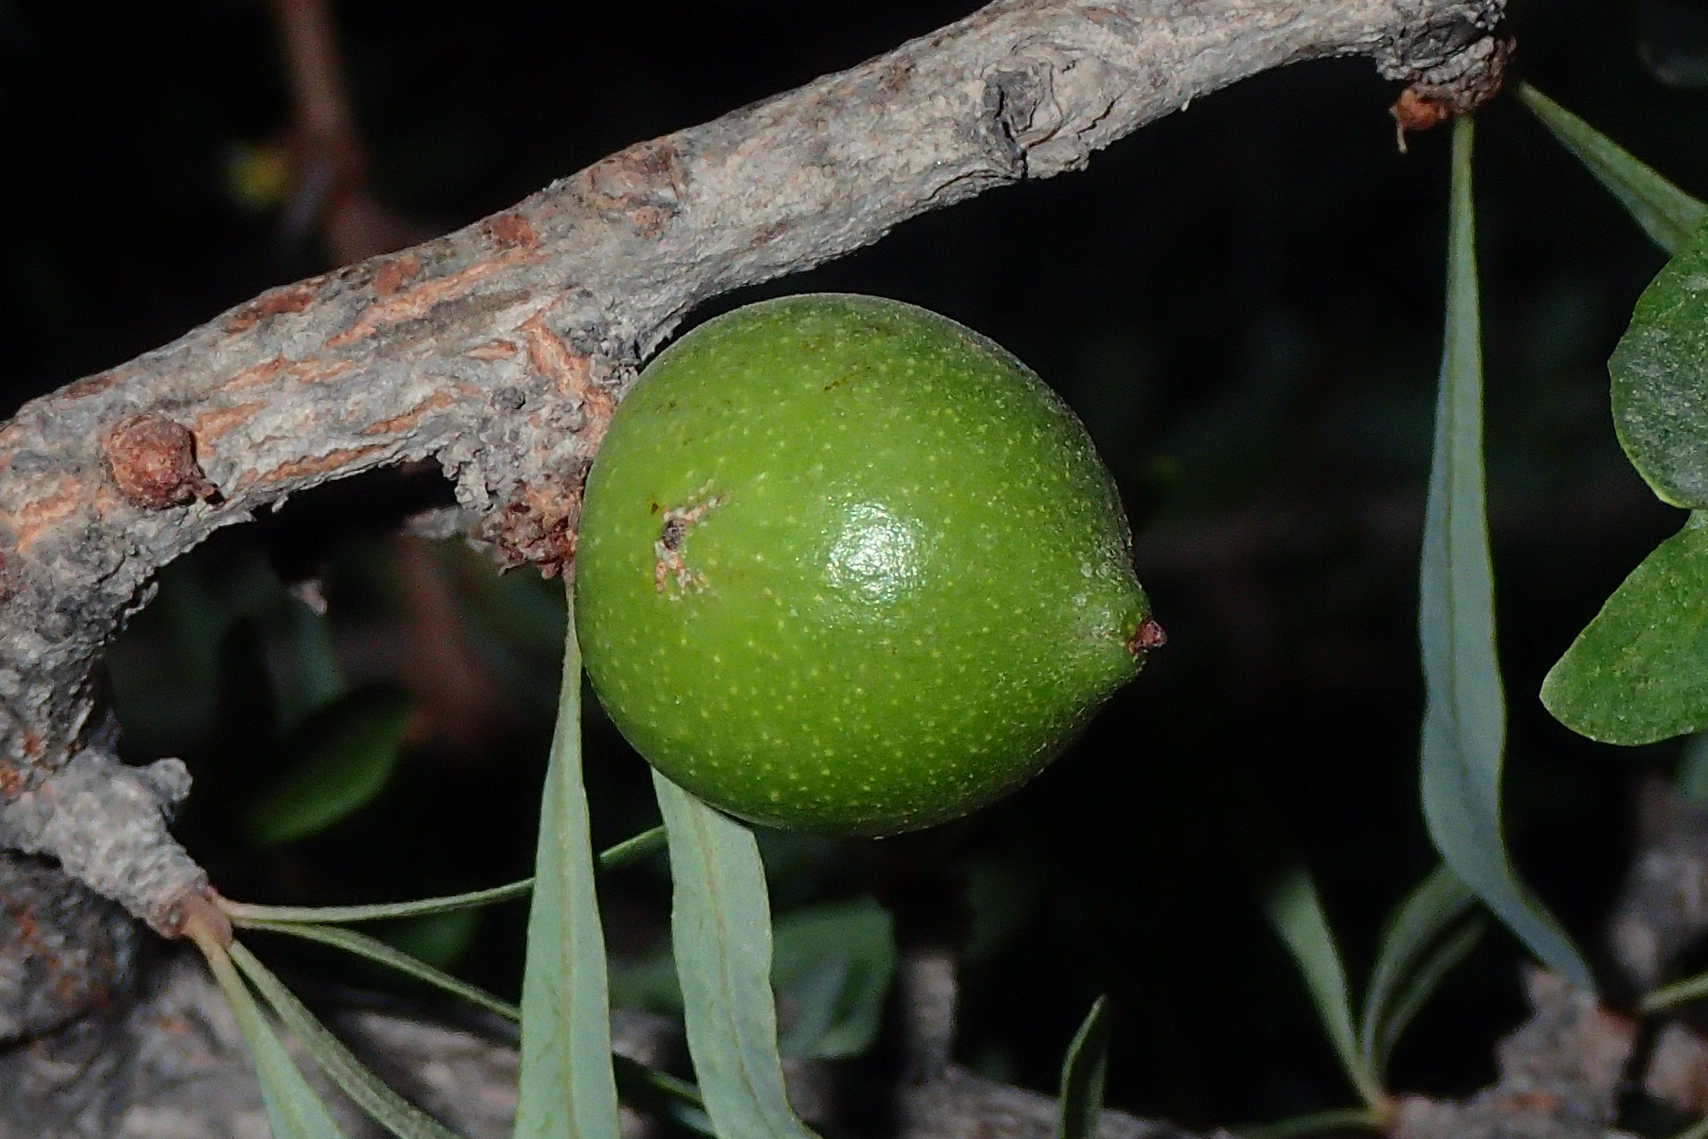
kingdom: Plantae
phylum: Tracheophyta
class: Magnoliopsida
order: Ericales
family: Sapotaceae
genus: Sideroxylon
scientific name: Sideroxylon spinosum
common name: Argan
